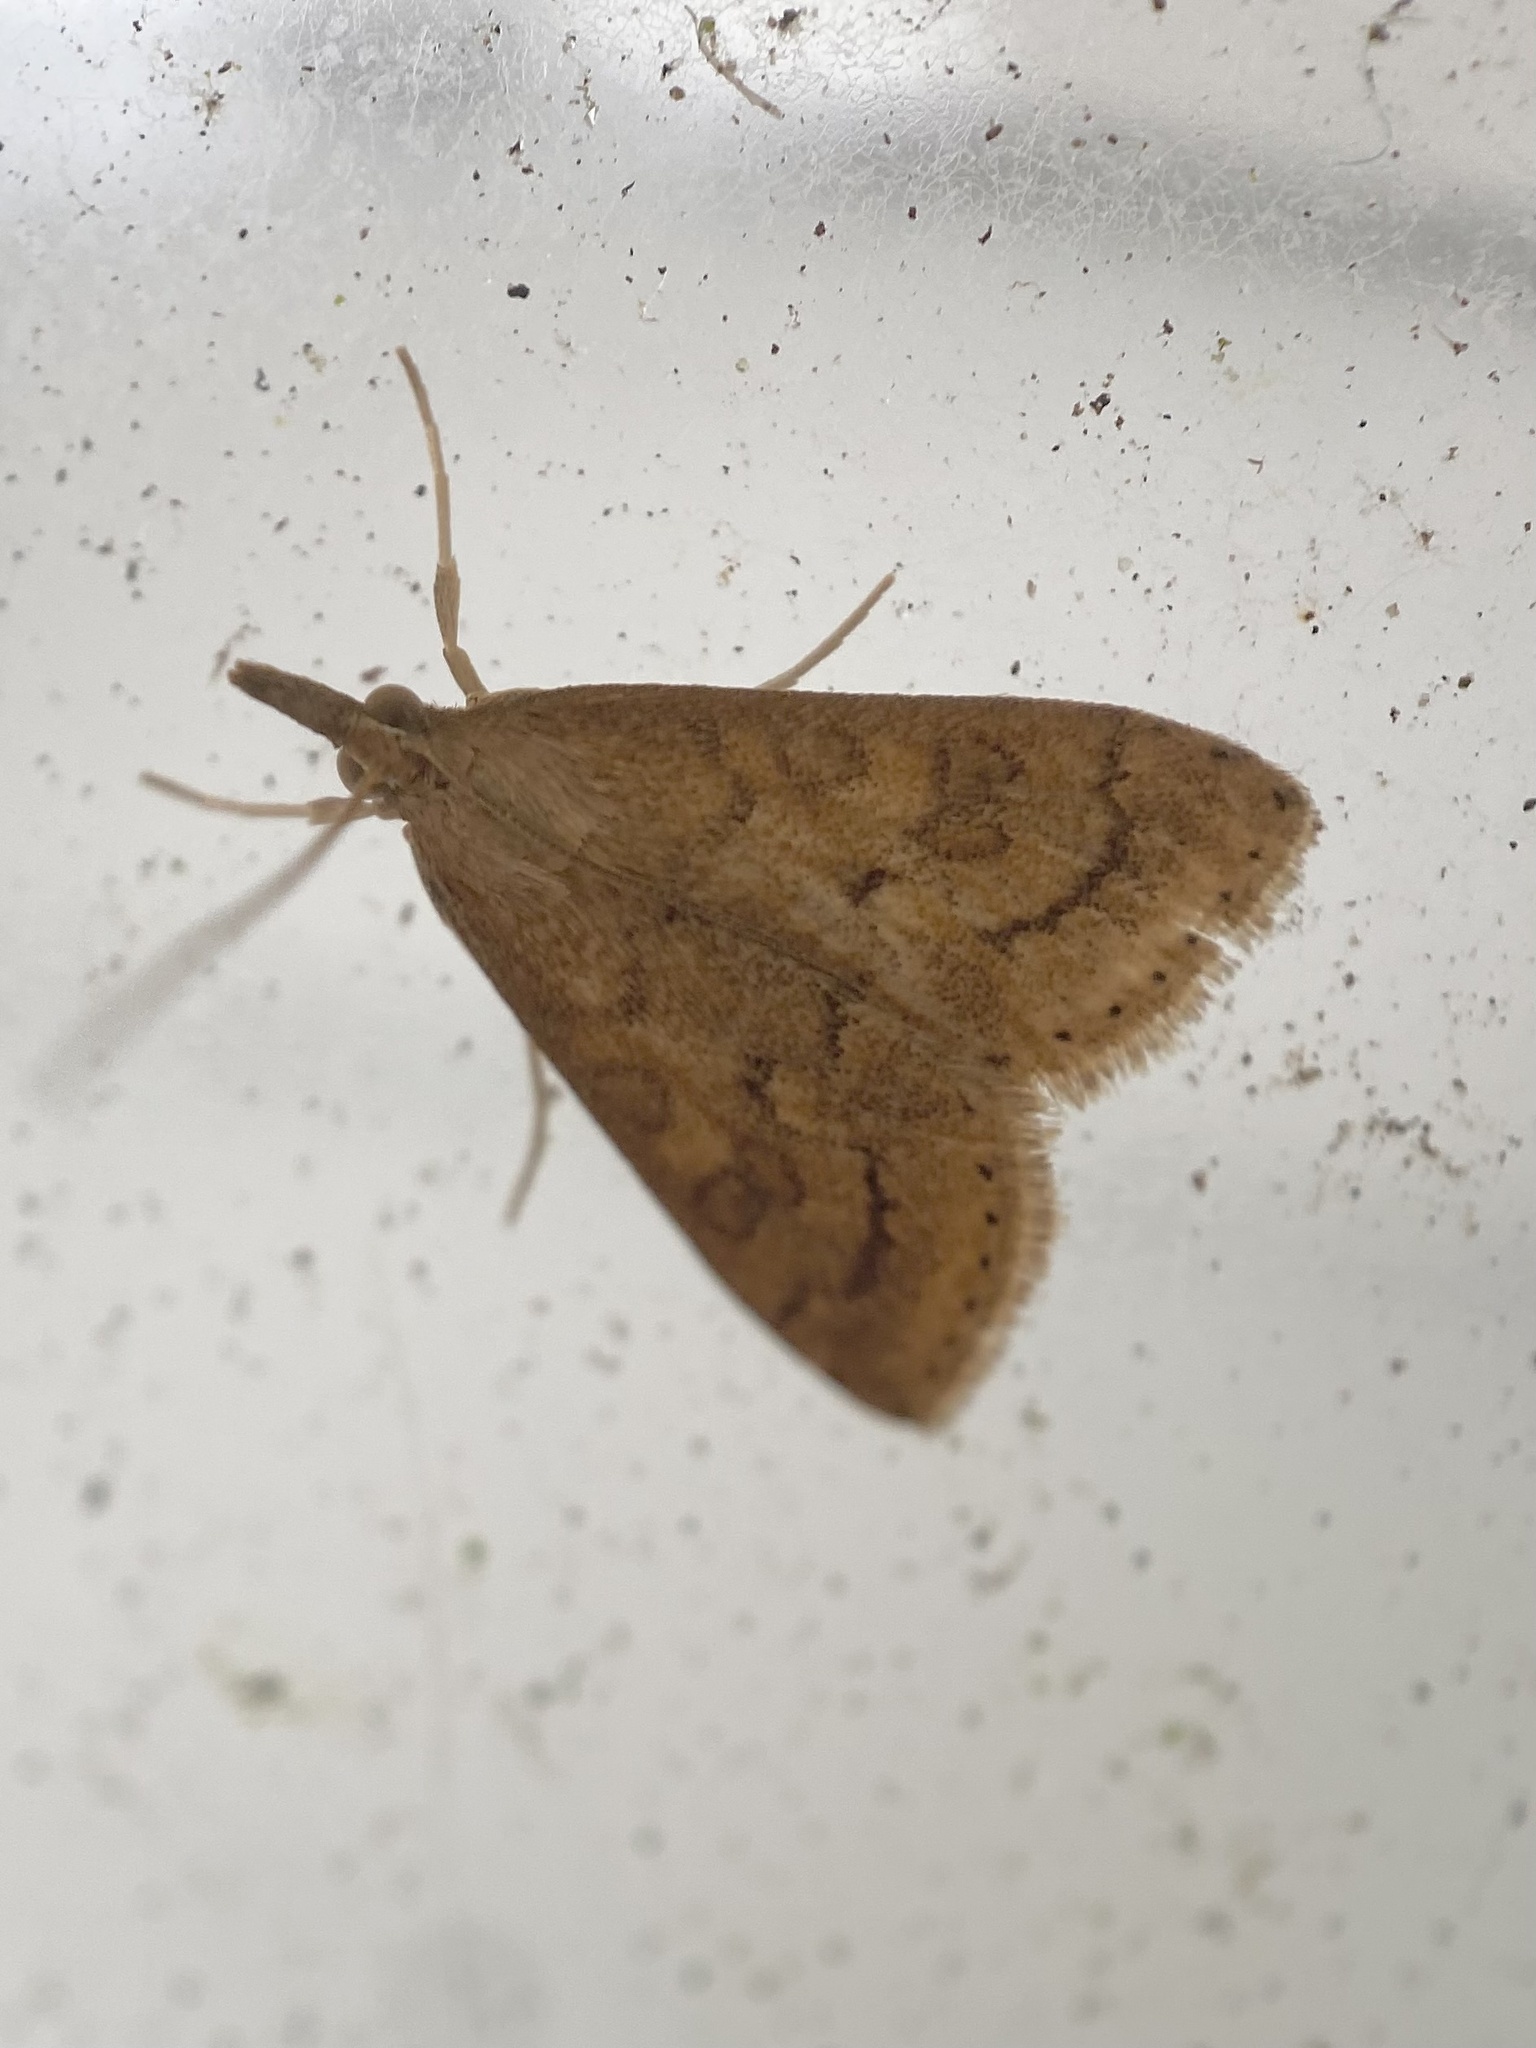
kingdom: Animalia
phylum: Arthropoda
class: Insecta
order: Lepidoptera
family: Crambidae
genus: Udea
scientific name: Udea rubigalis
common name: Celery leaftier moth
